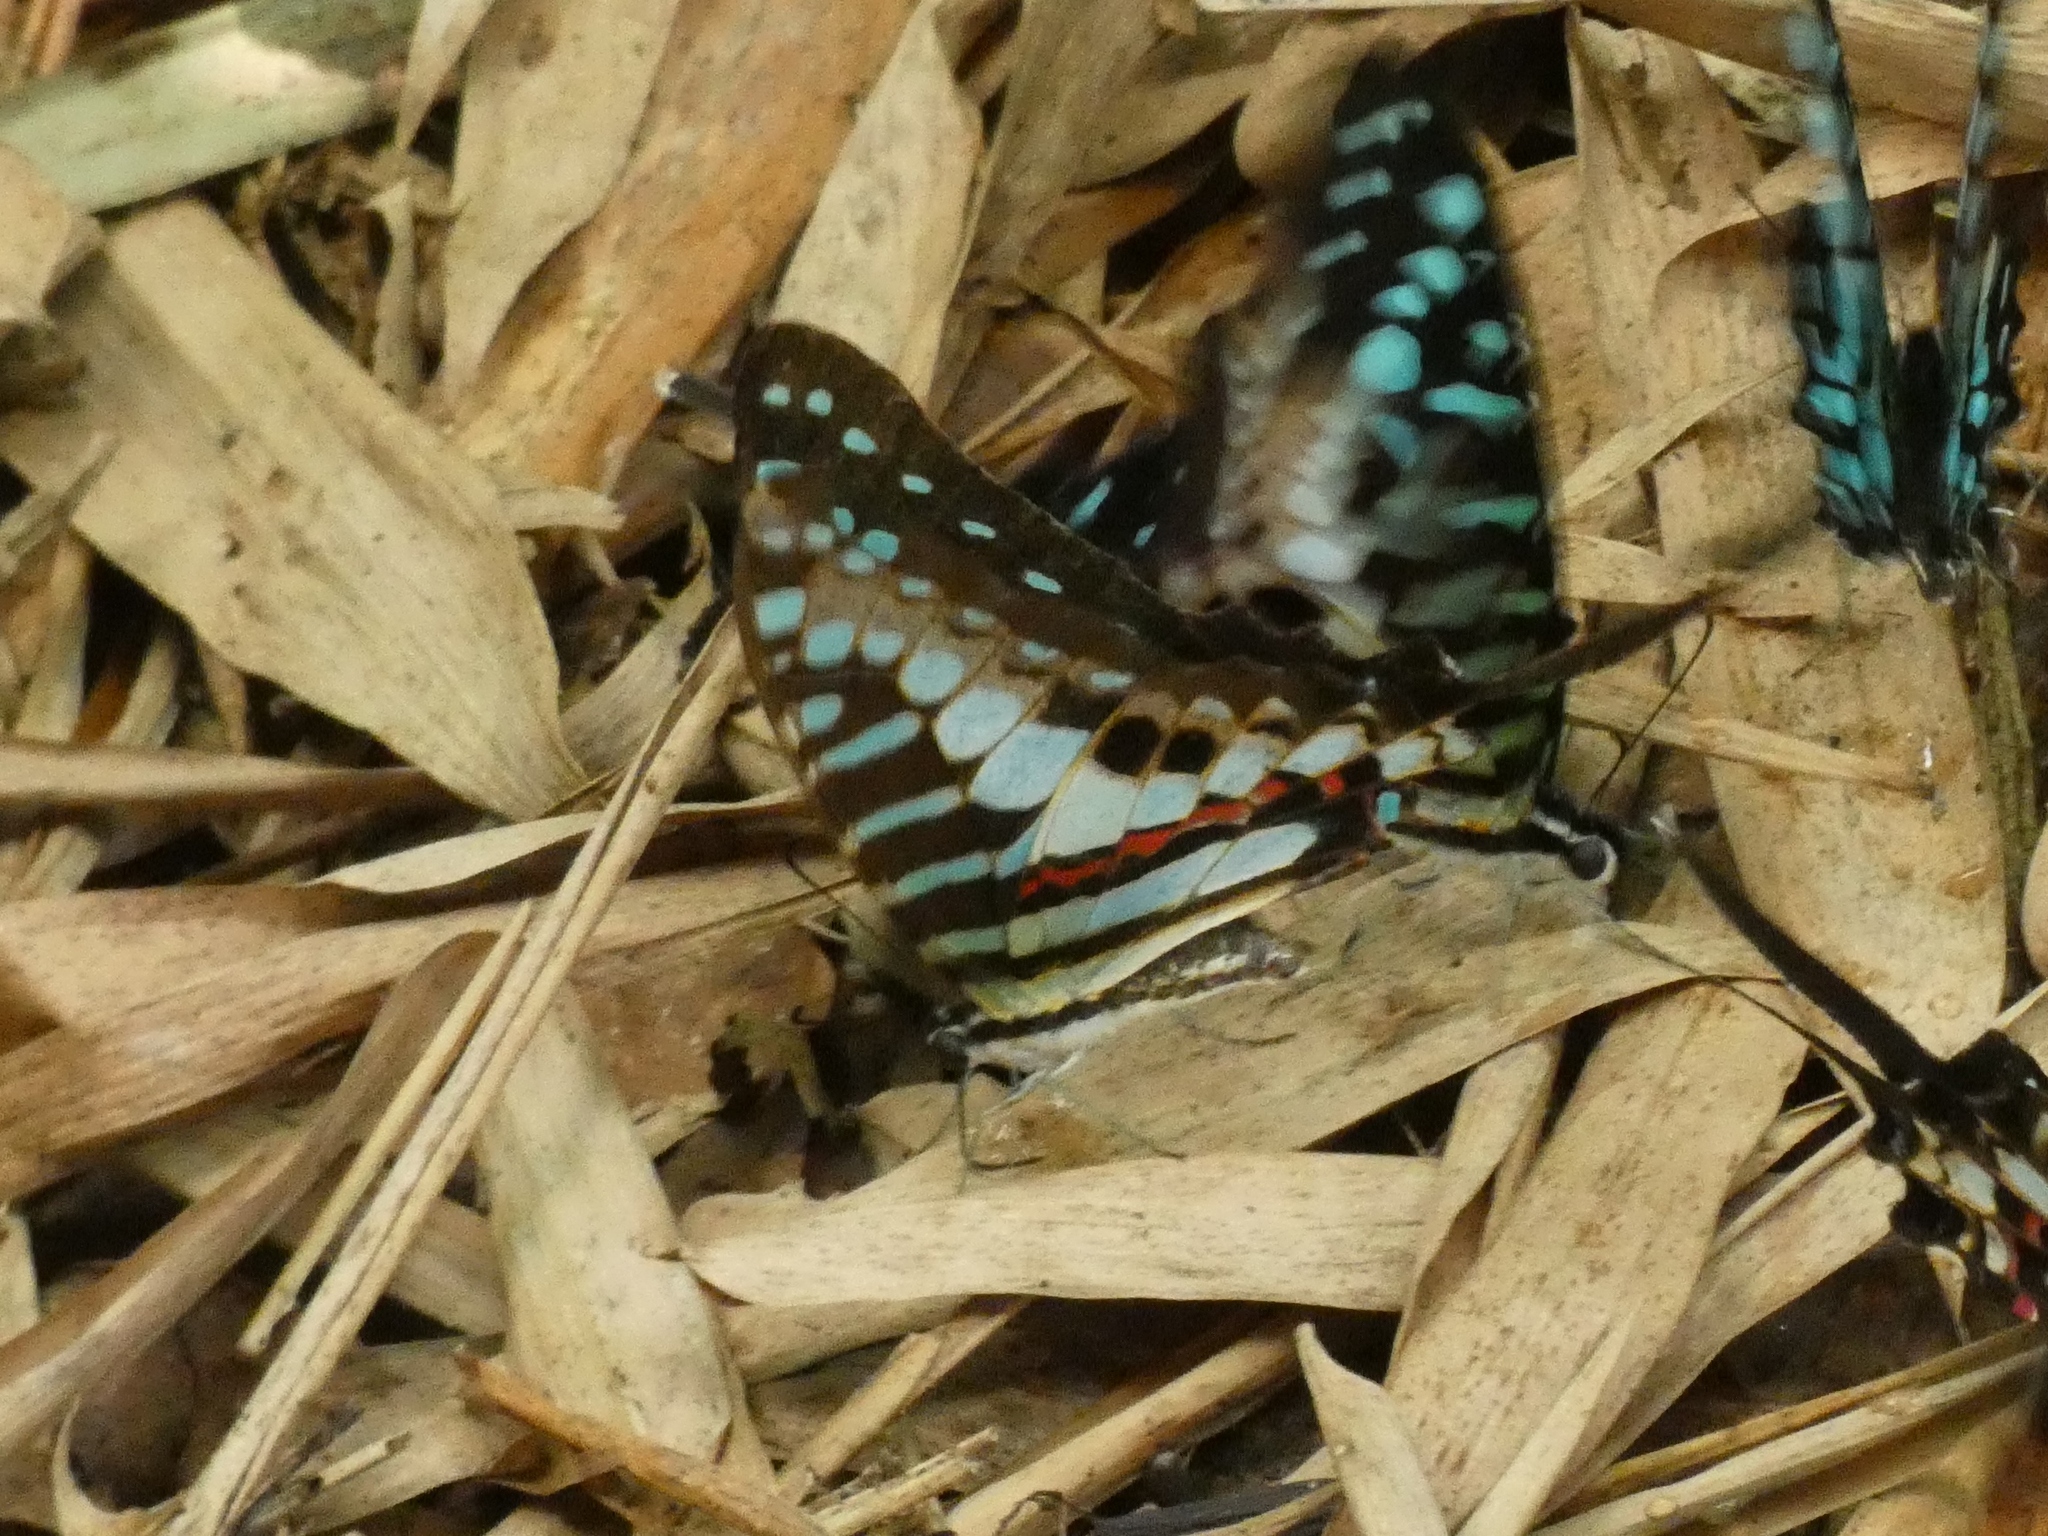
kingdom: Animalia
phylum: Arthropoda
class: Insecta
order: Lepidoptera
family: Papilionidae
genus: Graphium
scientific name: Graphium policenes
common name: Common swordtail
